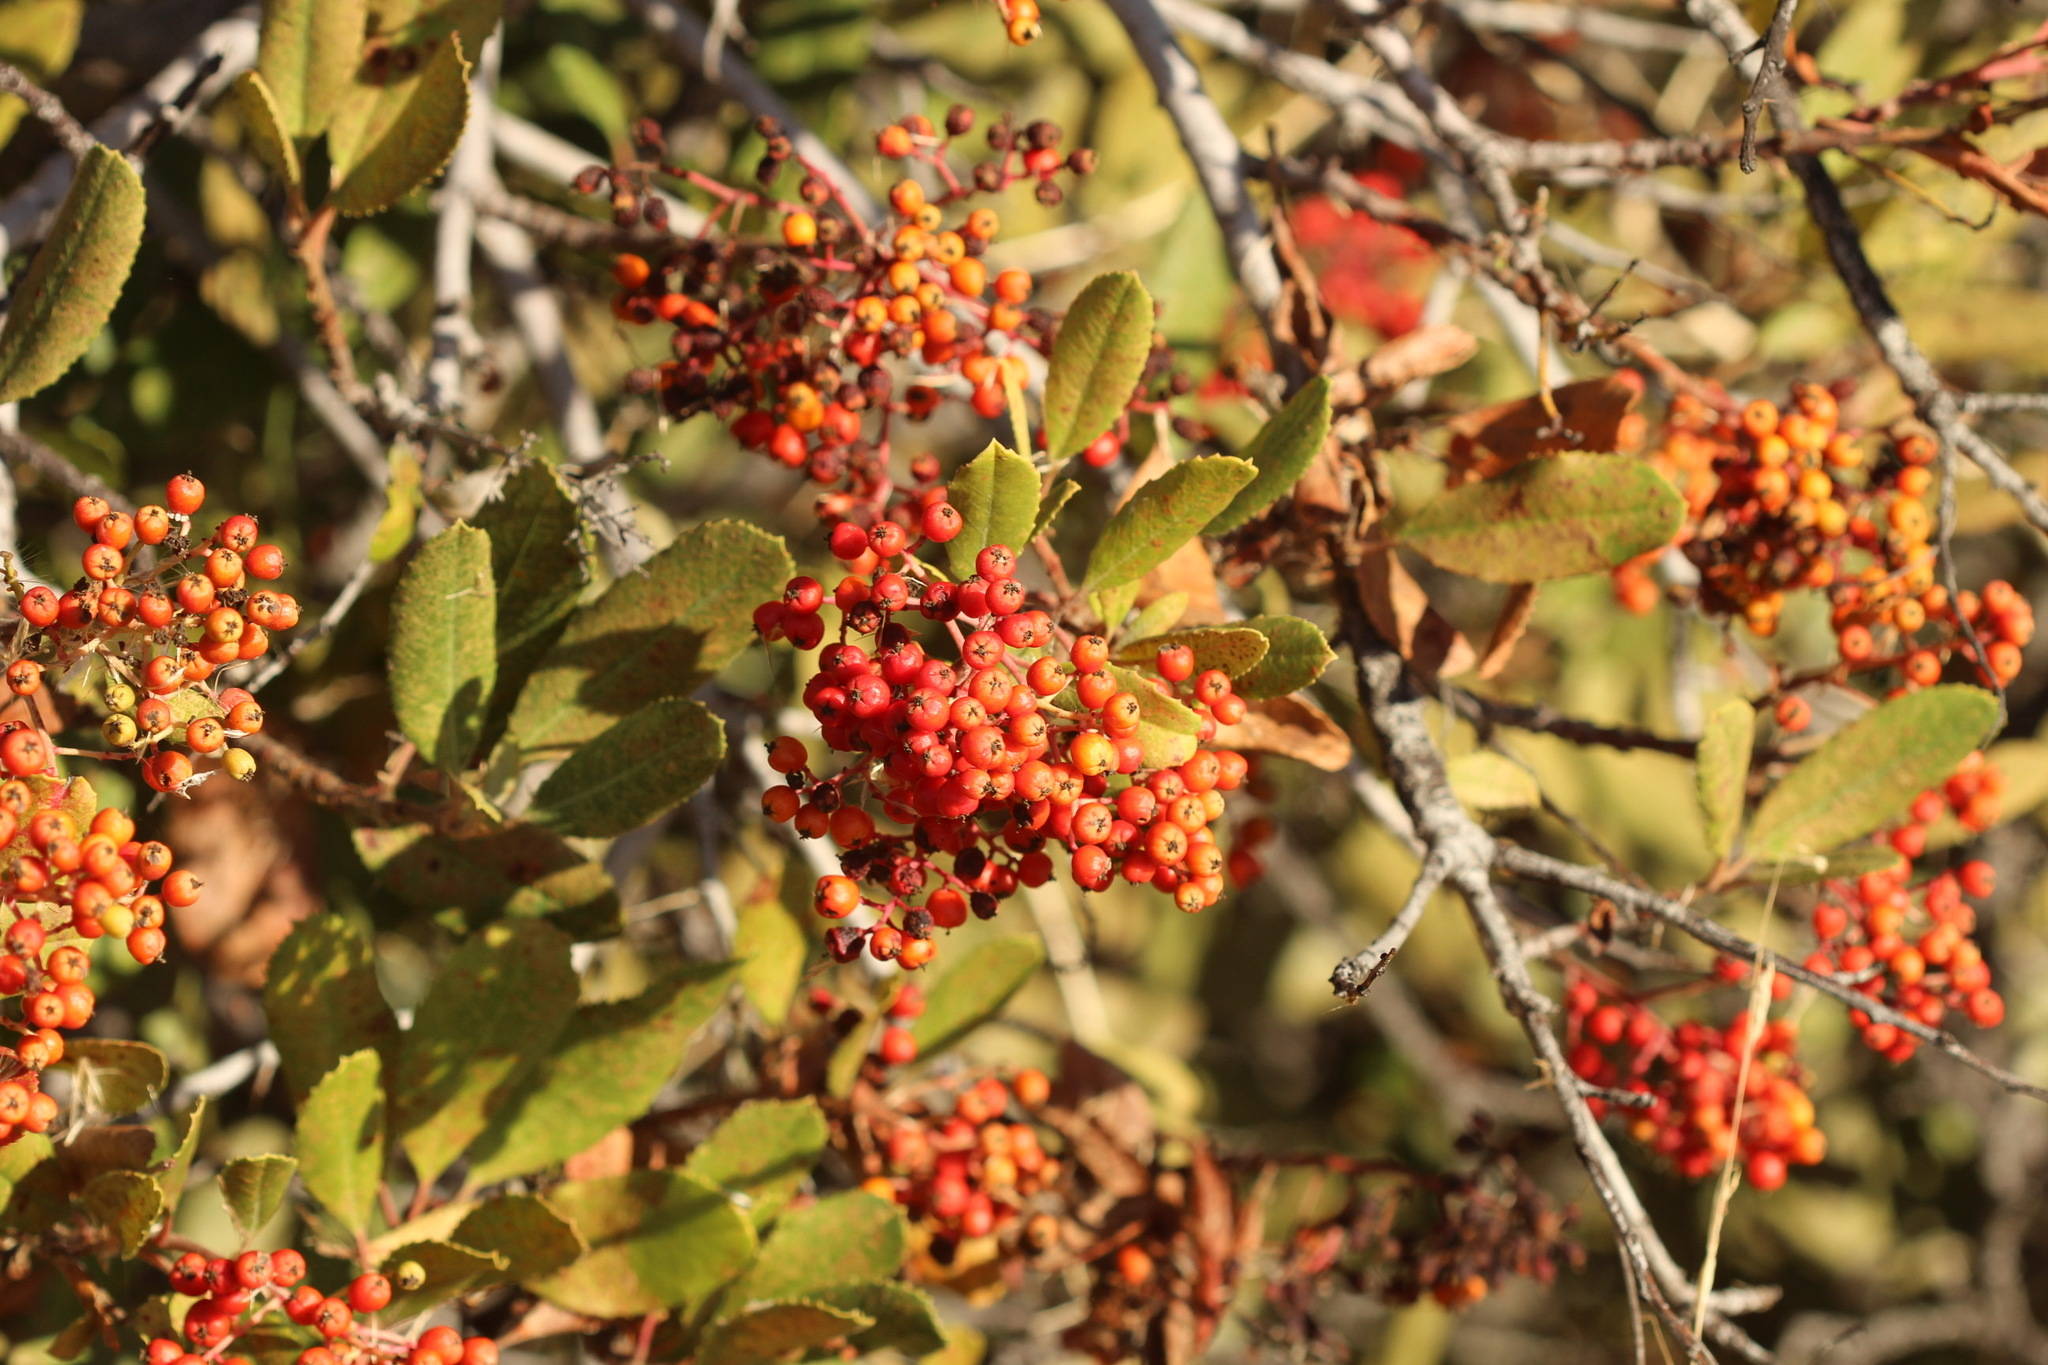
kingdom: Plantae
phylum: Tracheophyta
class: Magnoliopsida
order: Rosales
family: Rosaceae
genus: Heteromeles
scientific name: Heteromeles arbutifolia
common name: California-holly
